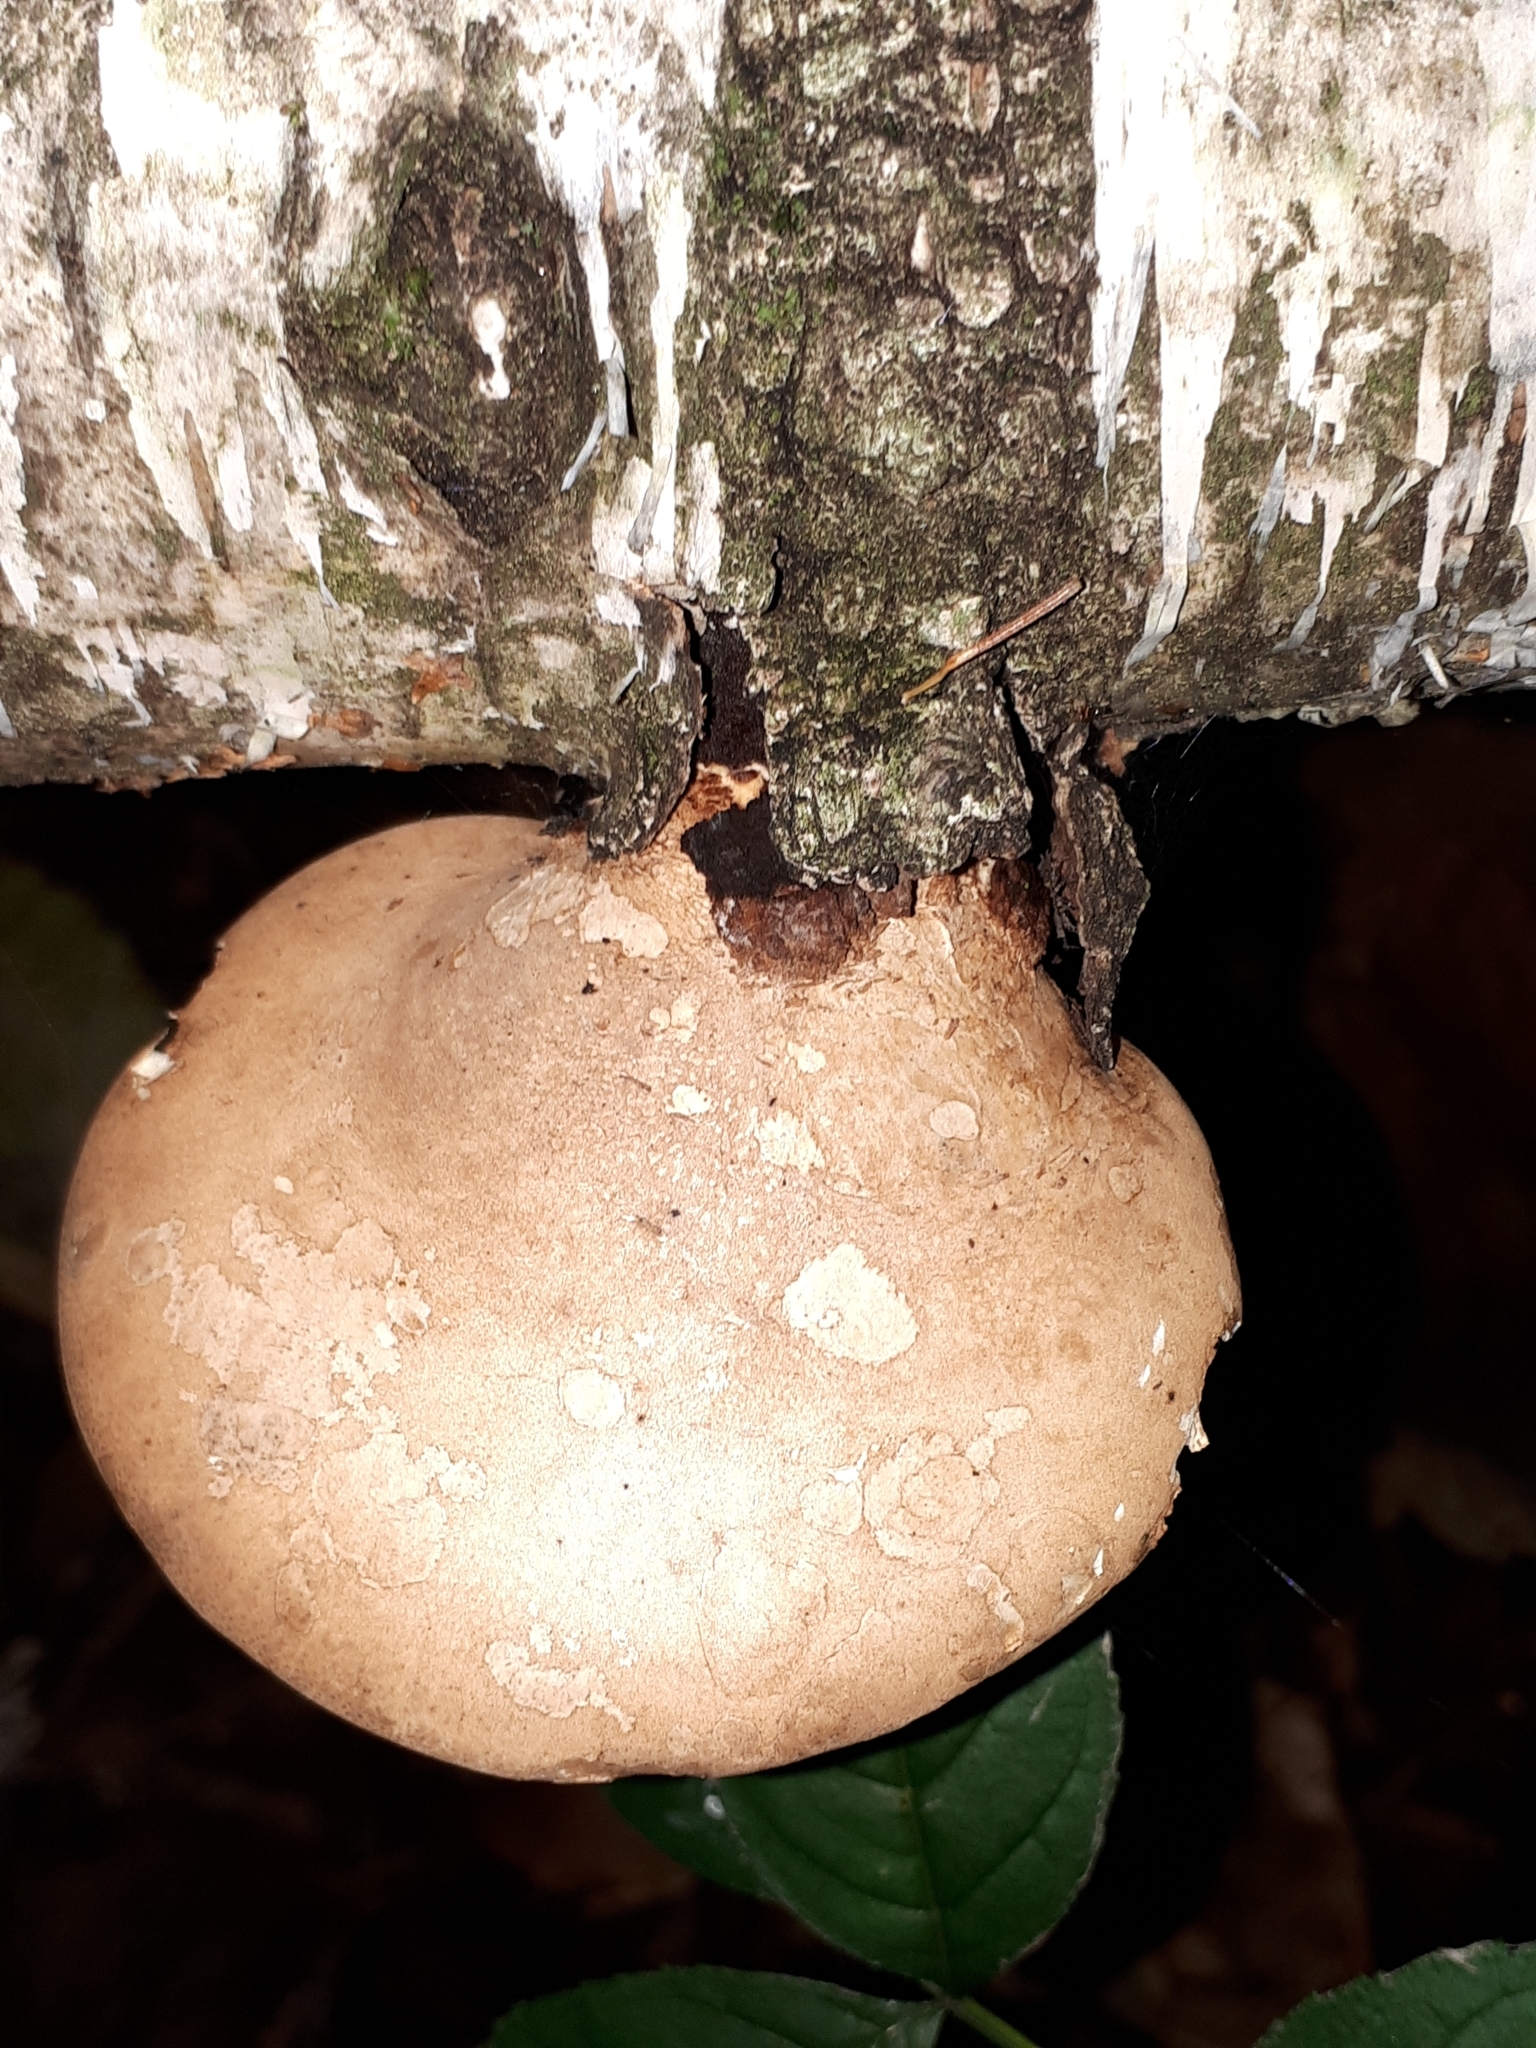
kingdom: Fungi
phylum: Basidiomycota
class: Agaricomycetes
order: Polyporales
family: Fomitopsidaceae
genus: Fomitopsis
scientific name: Fomitopsis betulina
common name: Birch polypore
